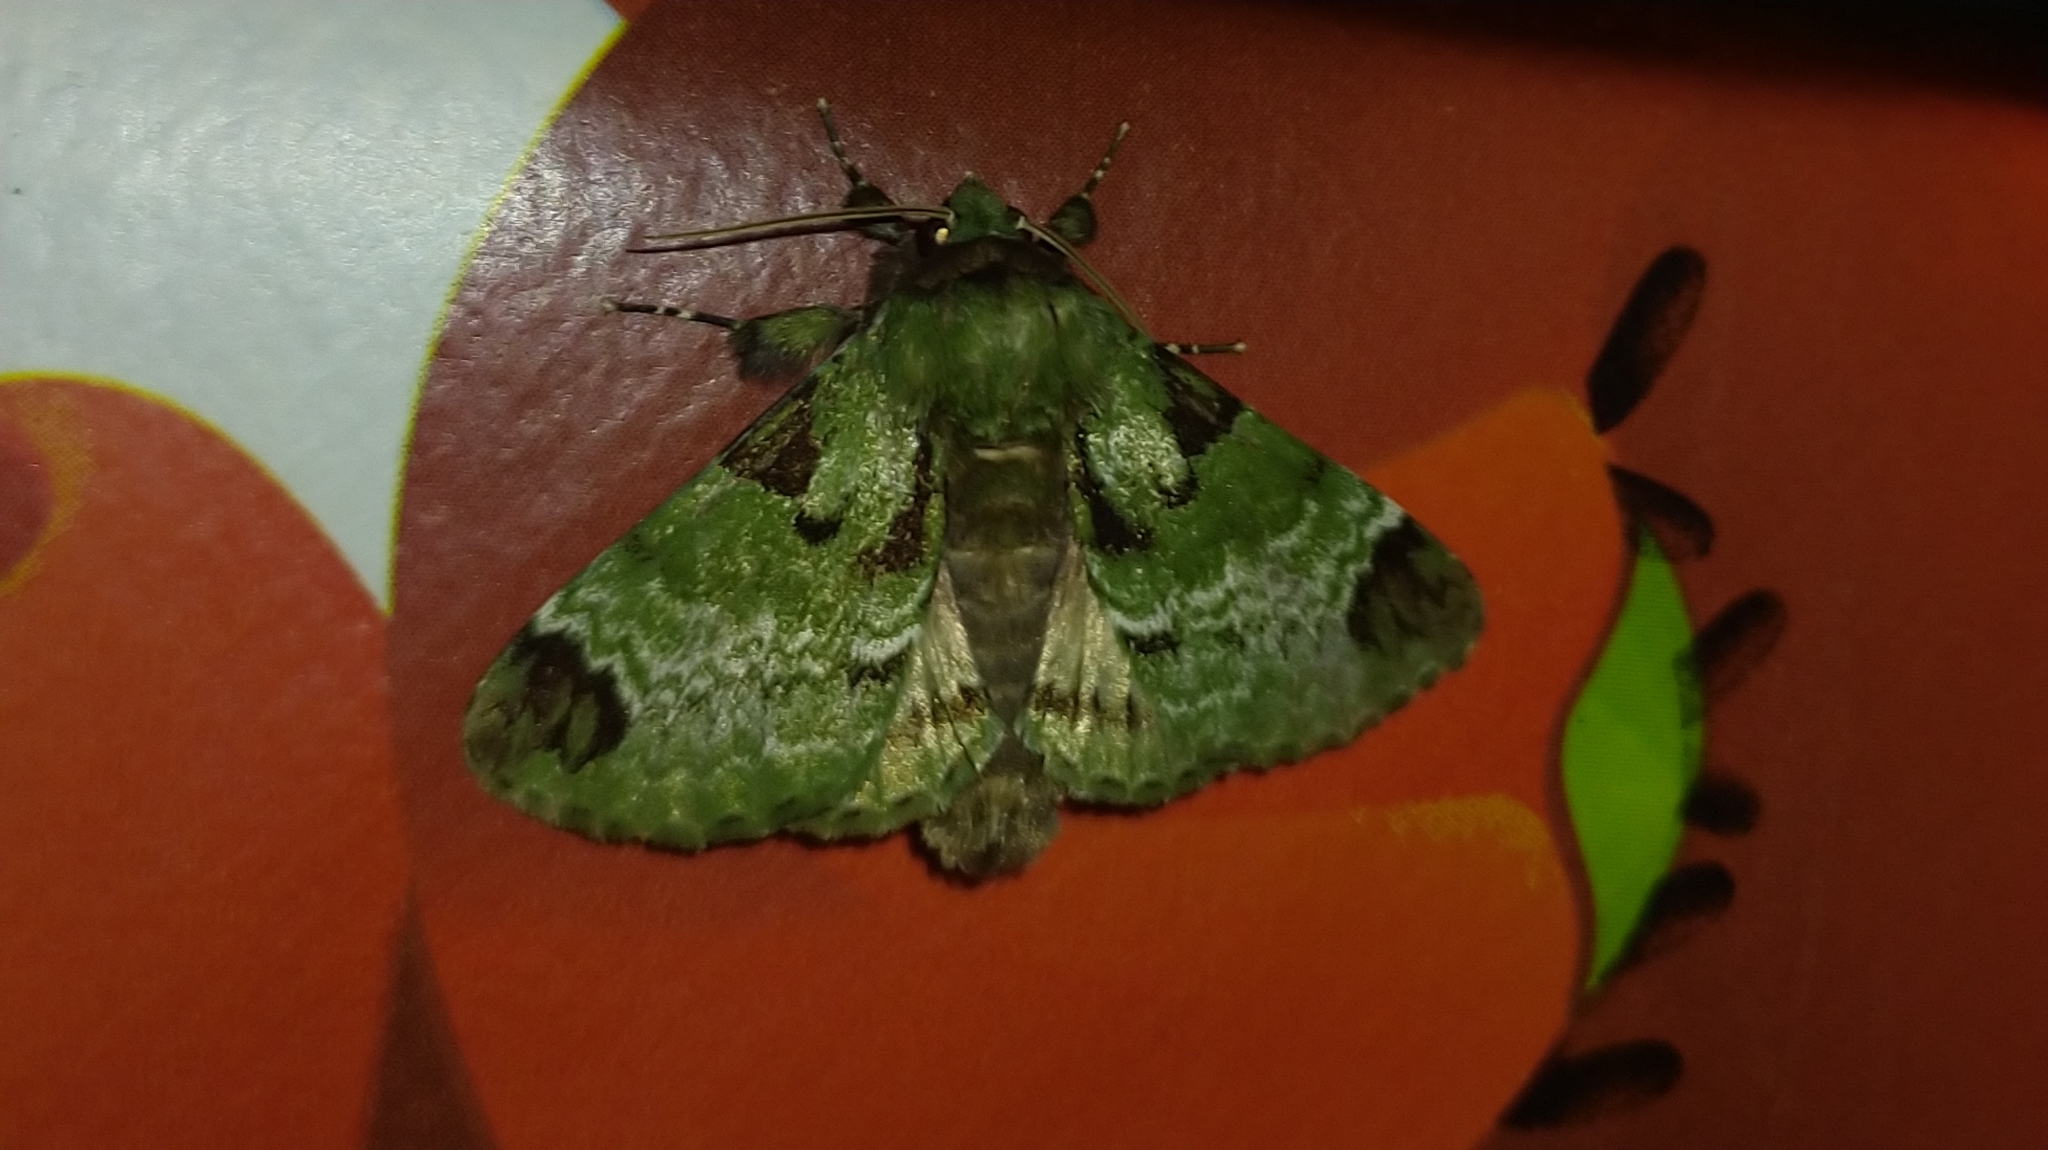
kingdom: Animalia
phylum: Arthropoda
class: Insecta
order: Lepidoptera
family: Erebidae
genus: Pachyplastis
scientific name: Pachyplastis apicalis
